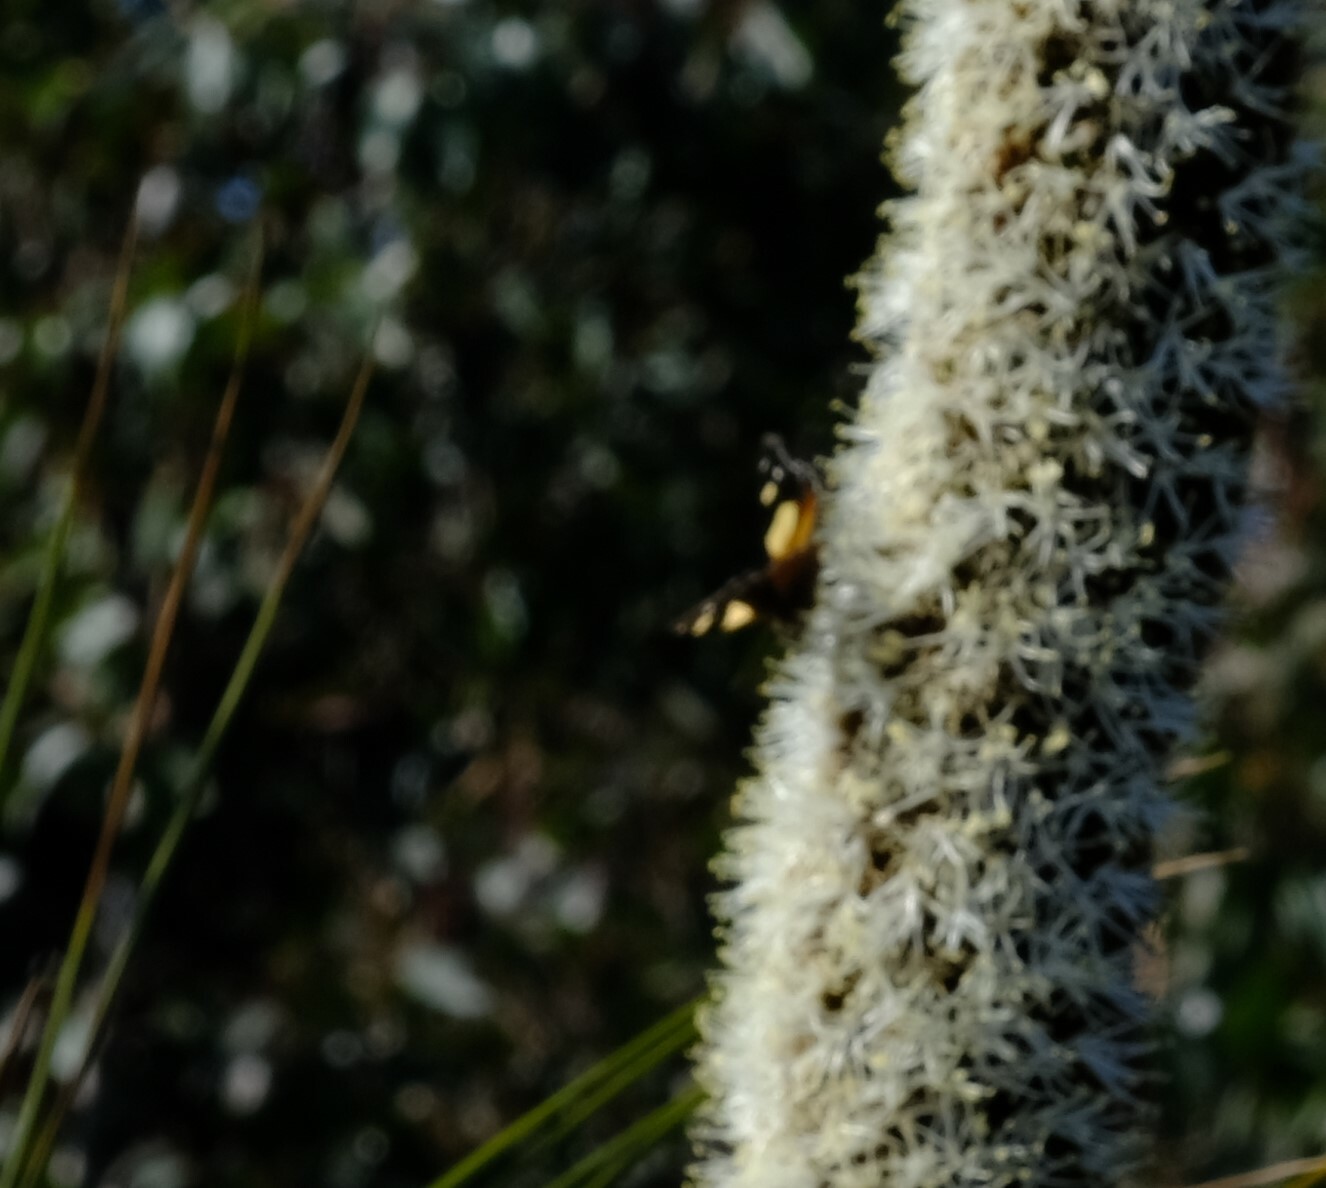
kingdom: Animalia
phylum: Arthropoda
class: Insecta
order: Lepidoptera
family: Nymphalidae
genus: Vanessa
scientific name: Vanessa itea
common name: Yellow admiral
